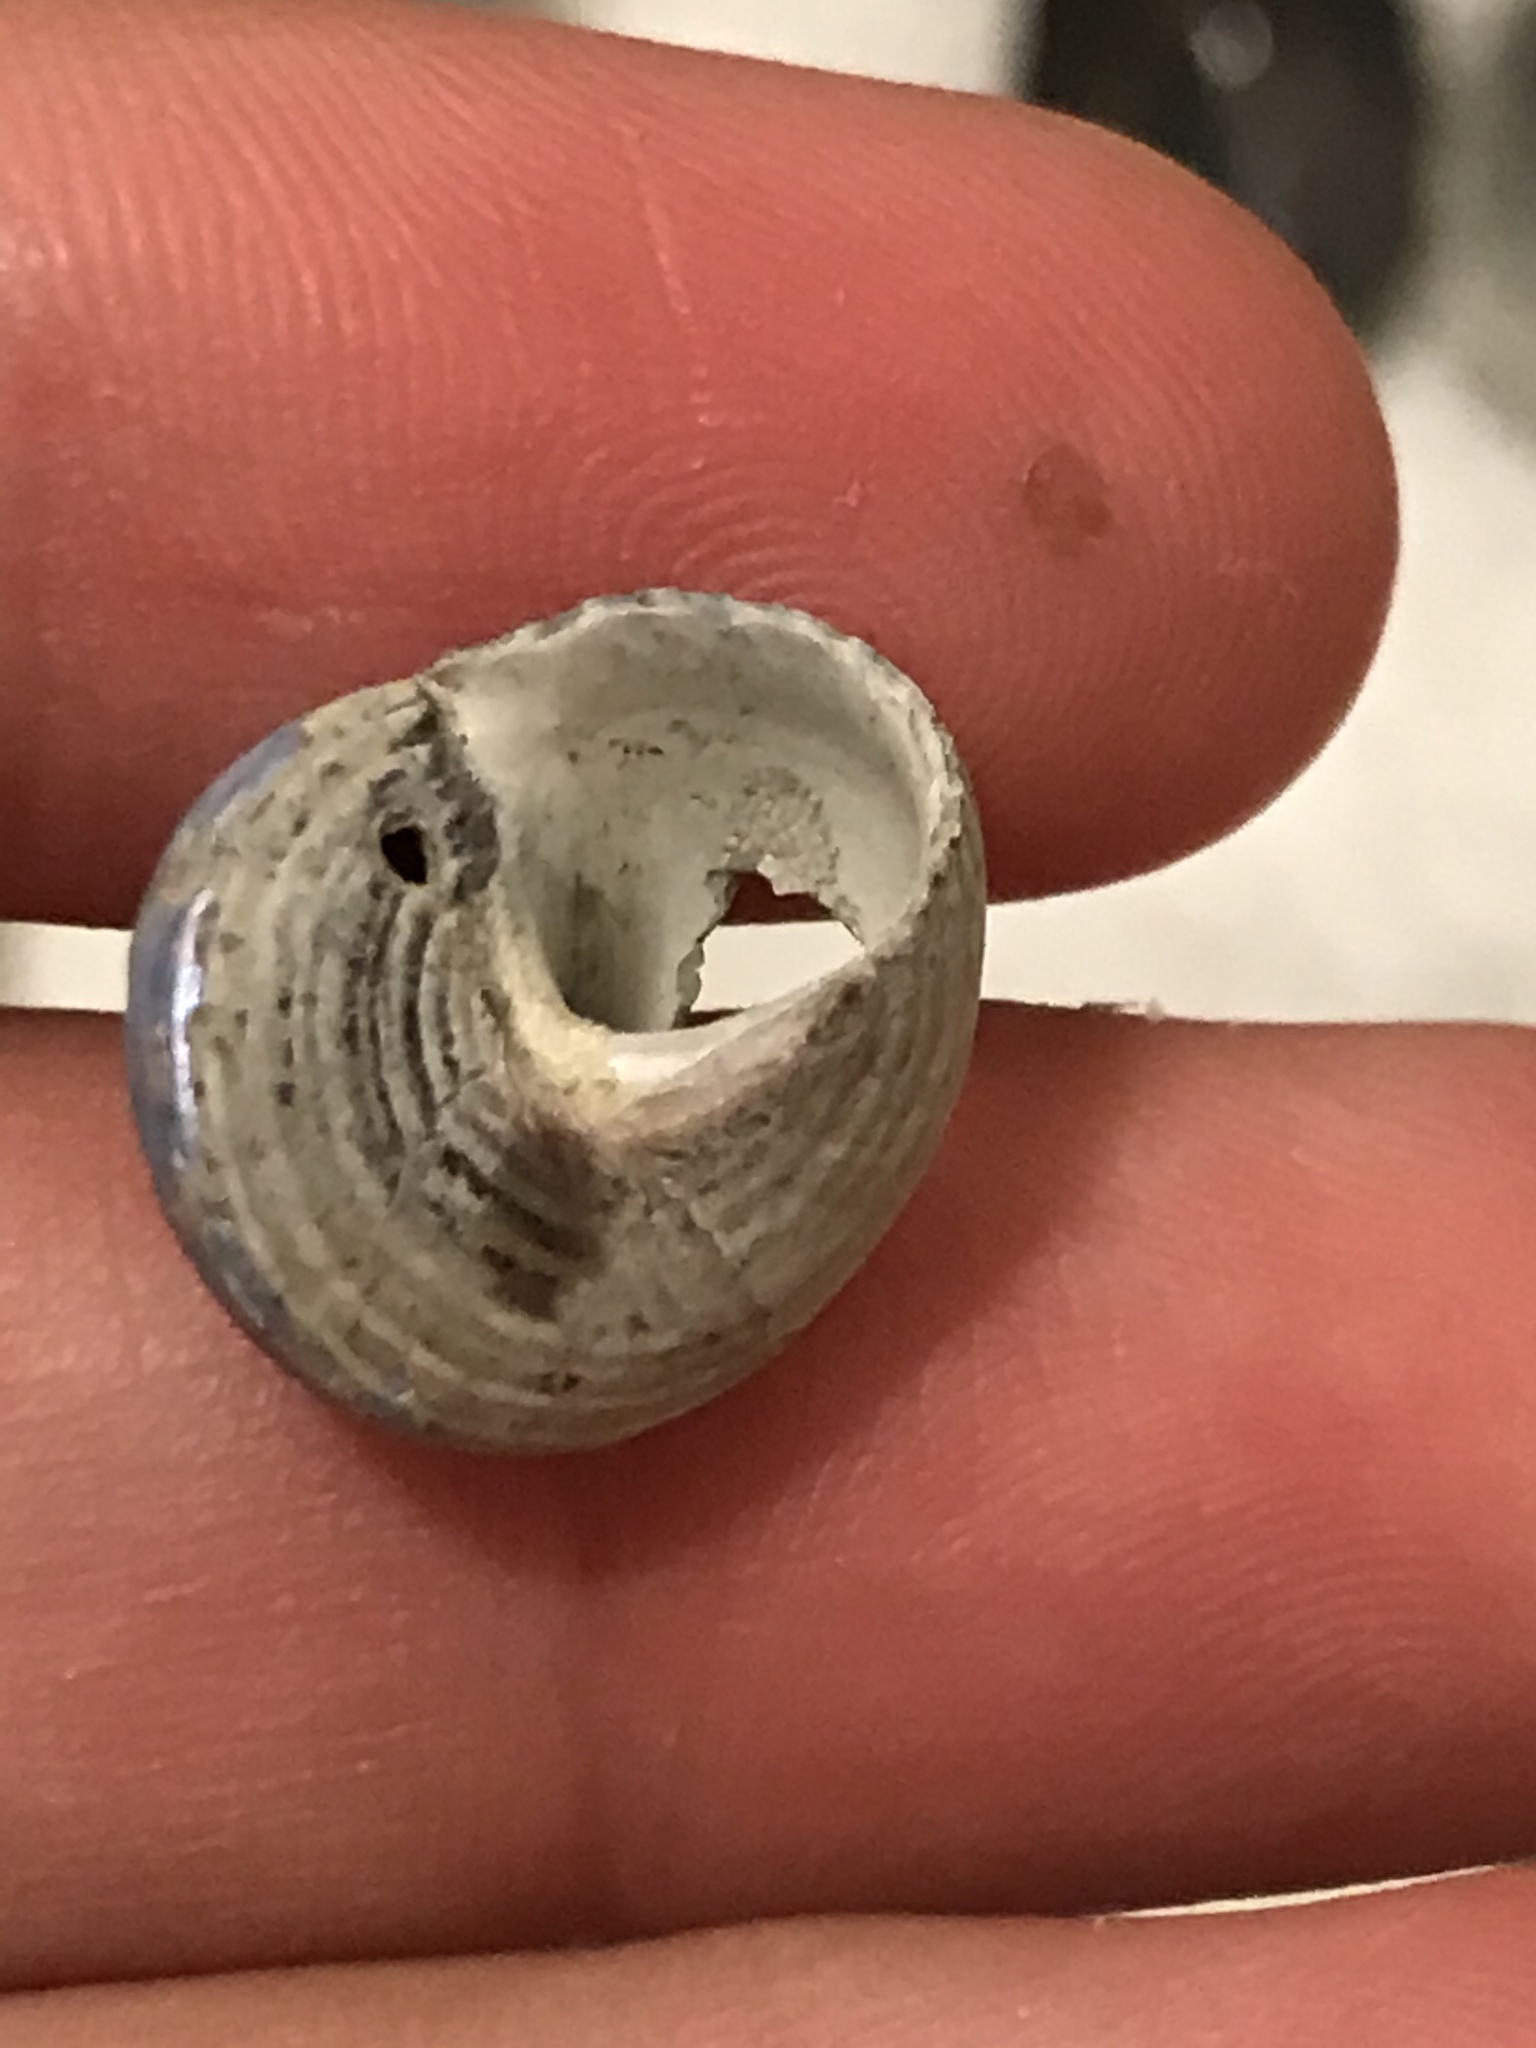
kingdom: Animalia
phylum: Mollusca
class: Gastropoda
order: Trochida
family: Calliostomatidae
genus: Calliostoma
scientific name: Calliostoma ligatum
